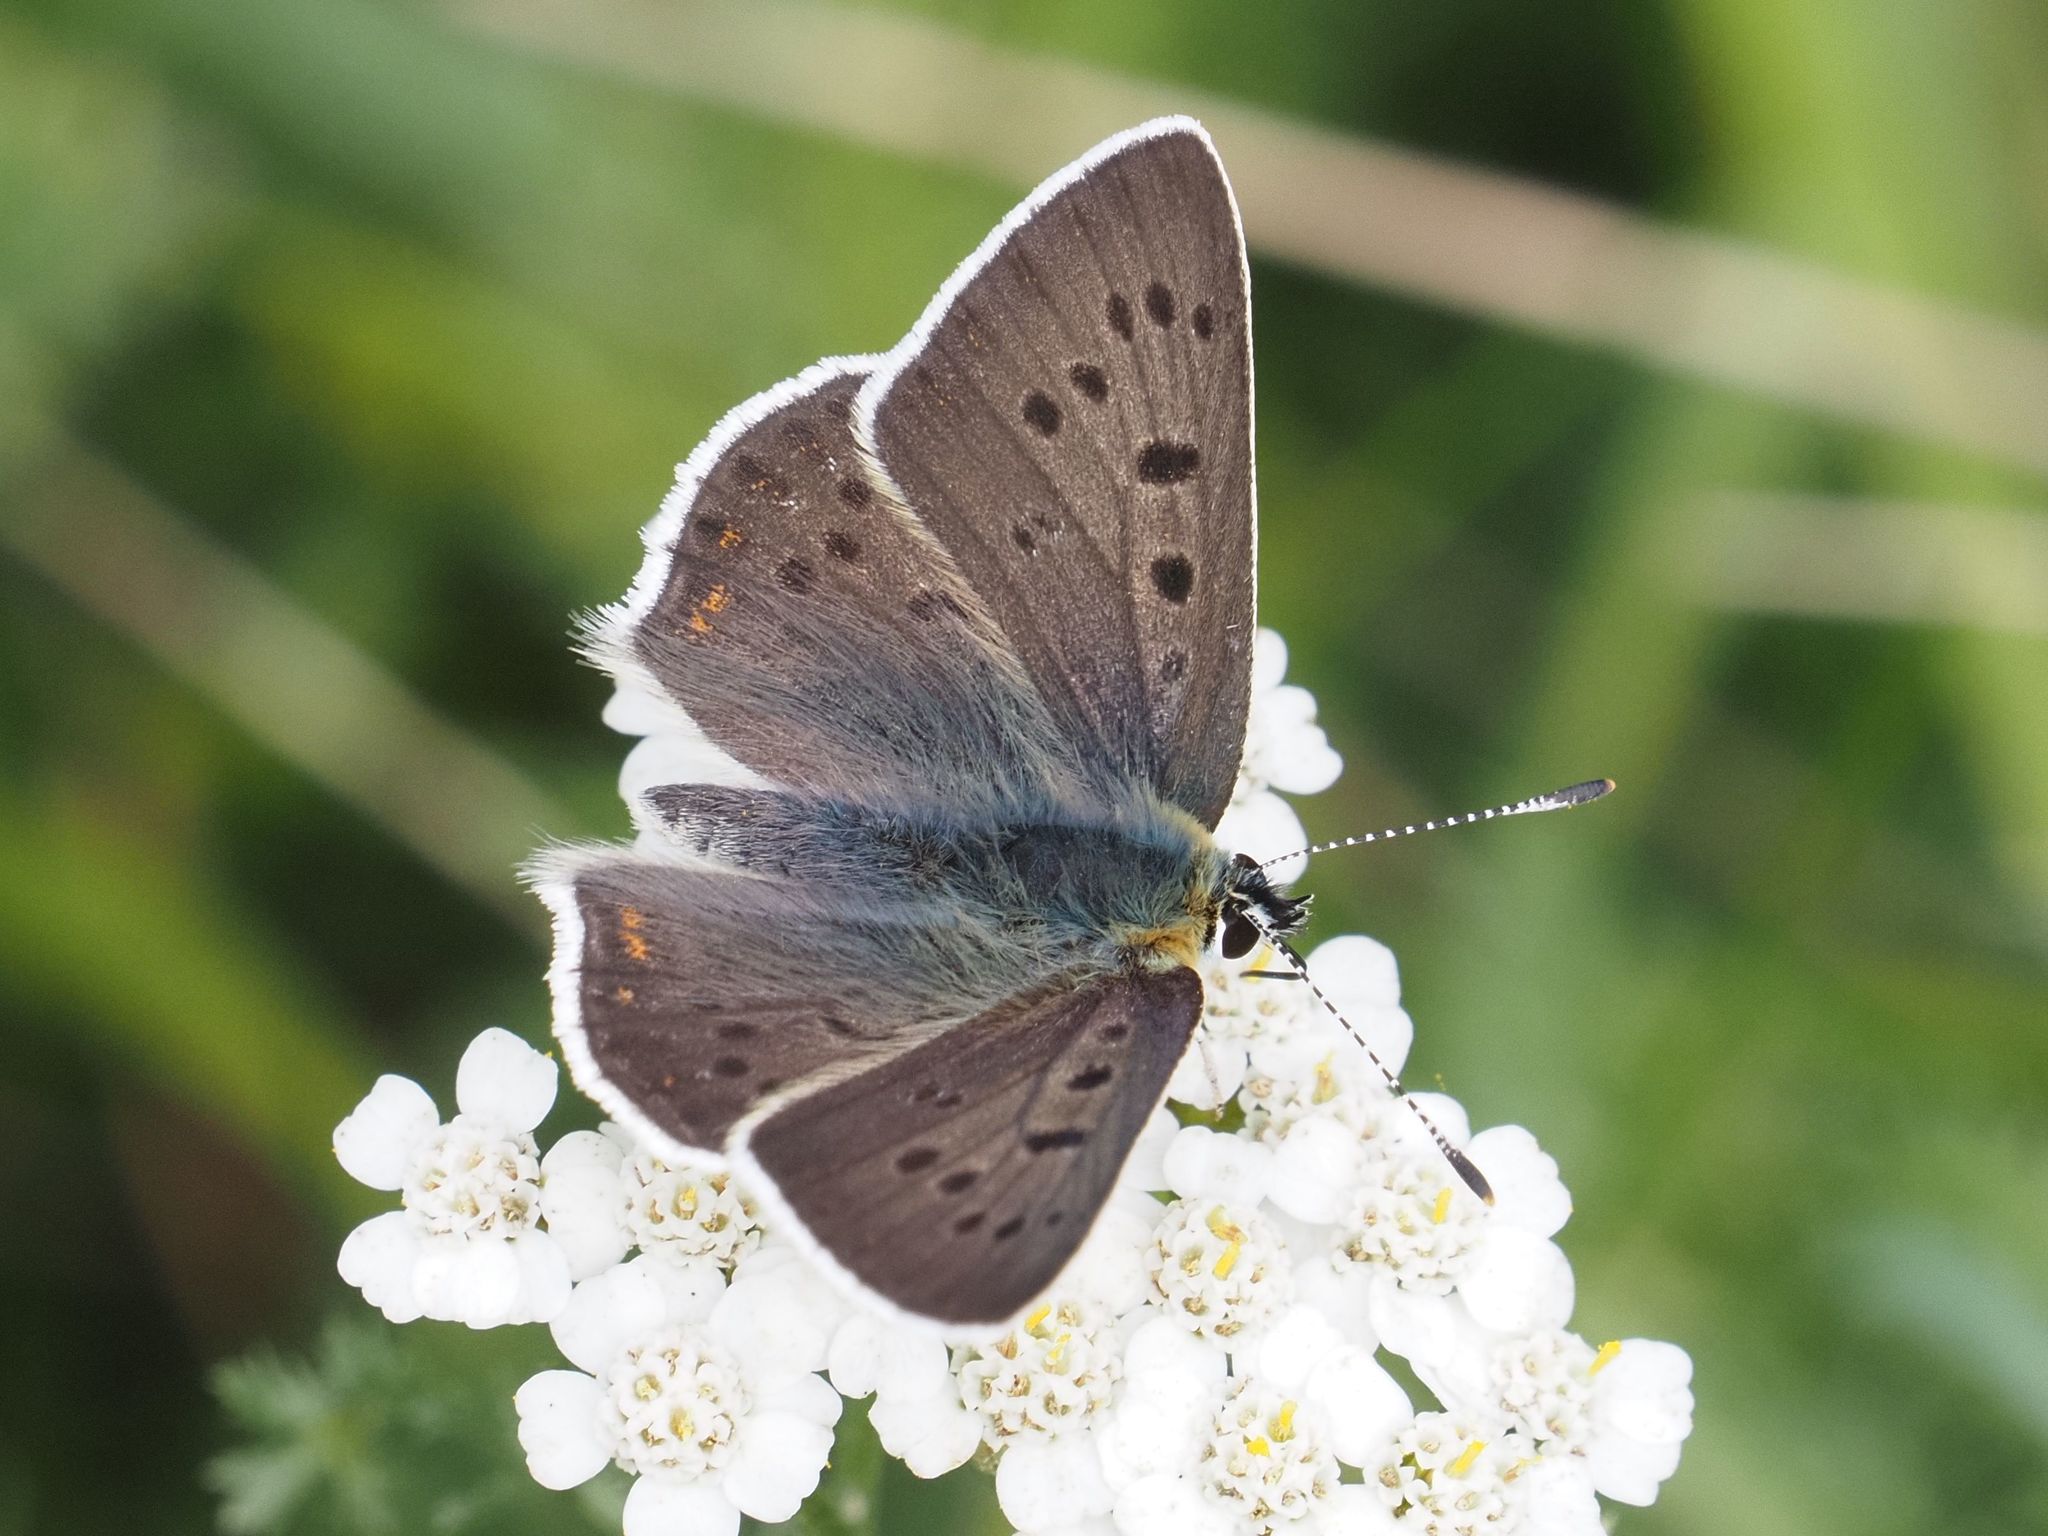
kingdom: Animalia
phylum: Arthropoda
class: Insecta
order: Lepidoptera
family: Lycaenidae
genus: Loweia
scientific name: Loweia tityrus
